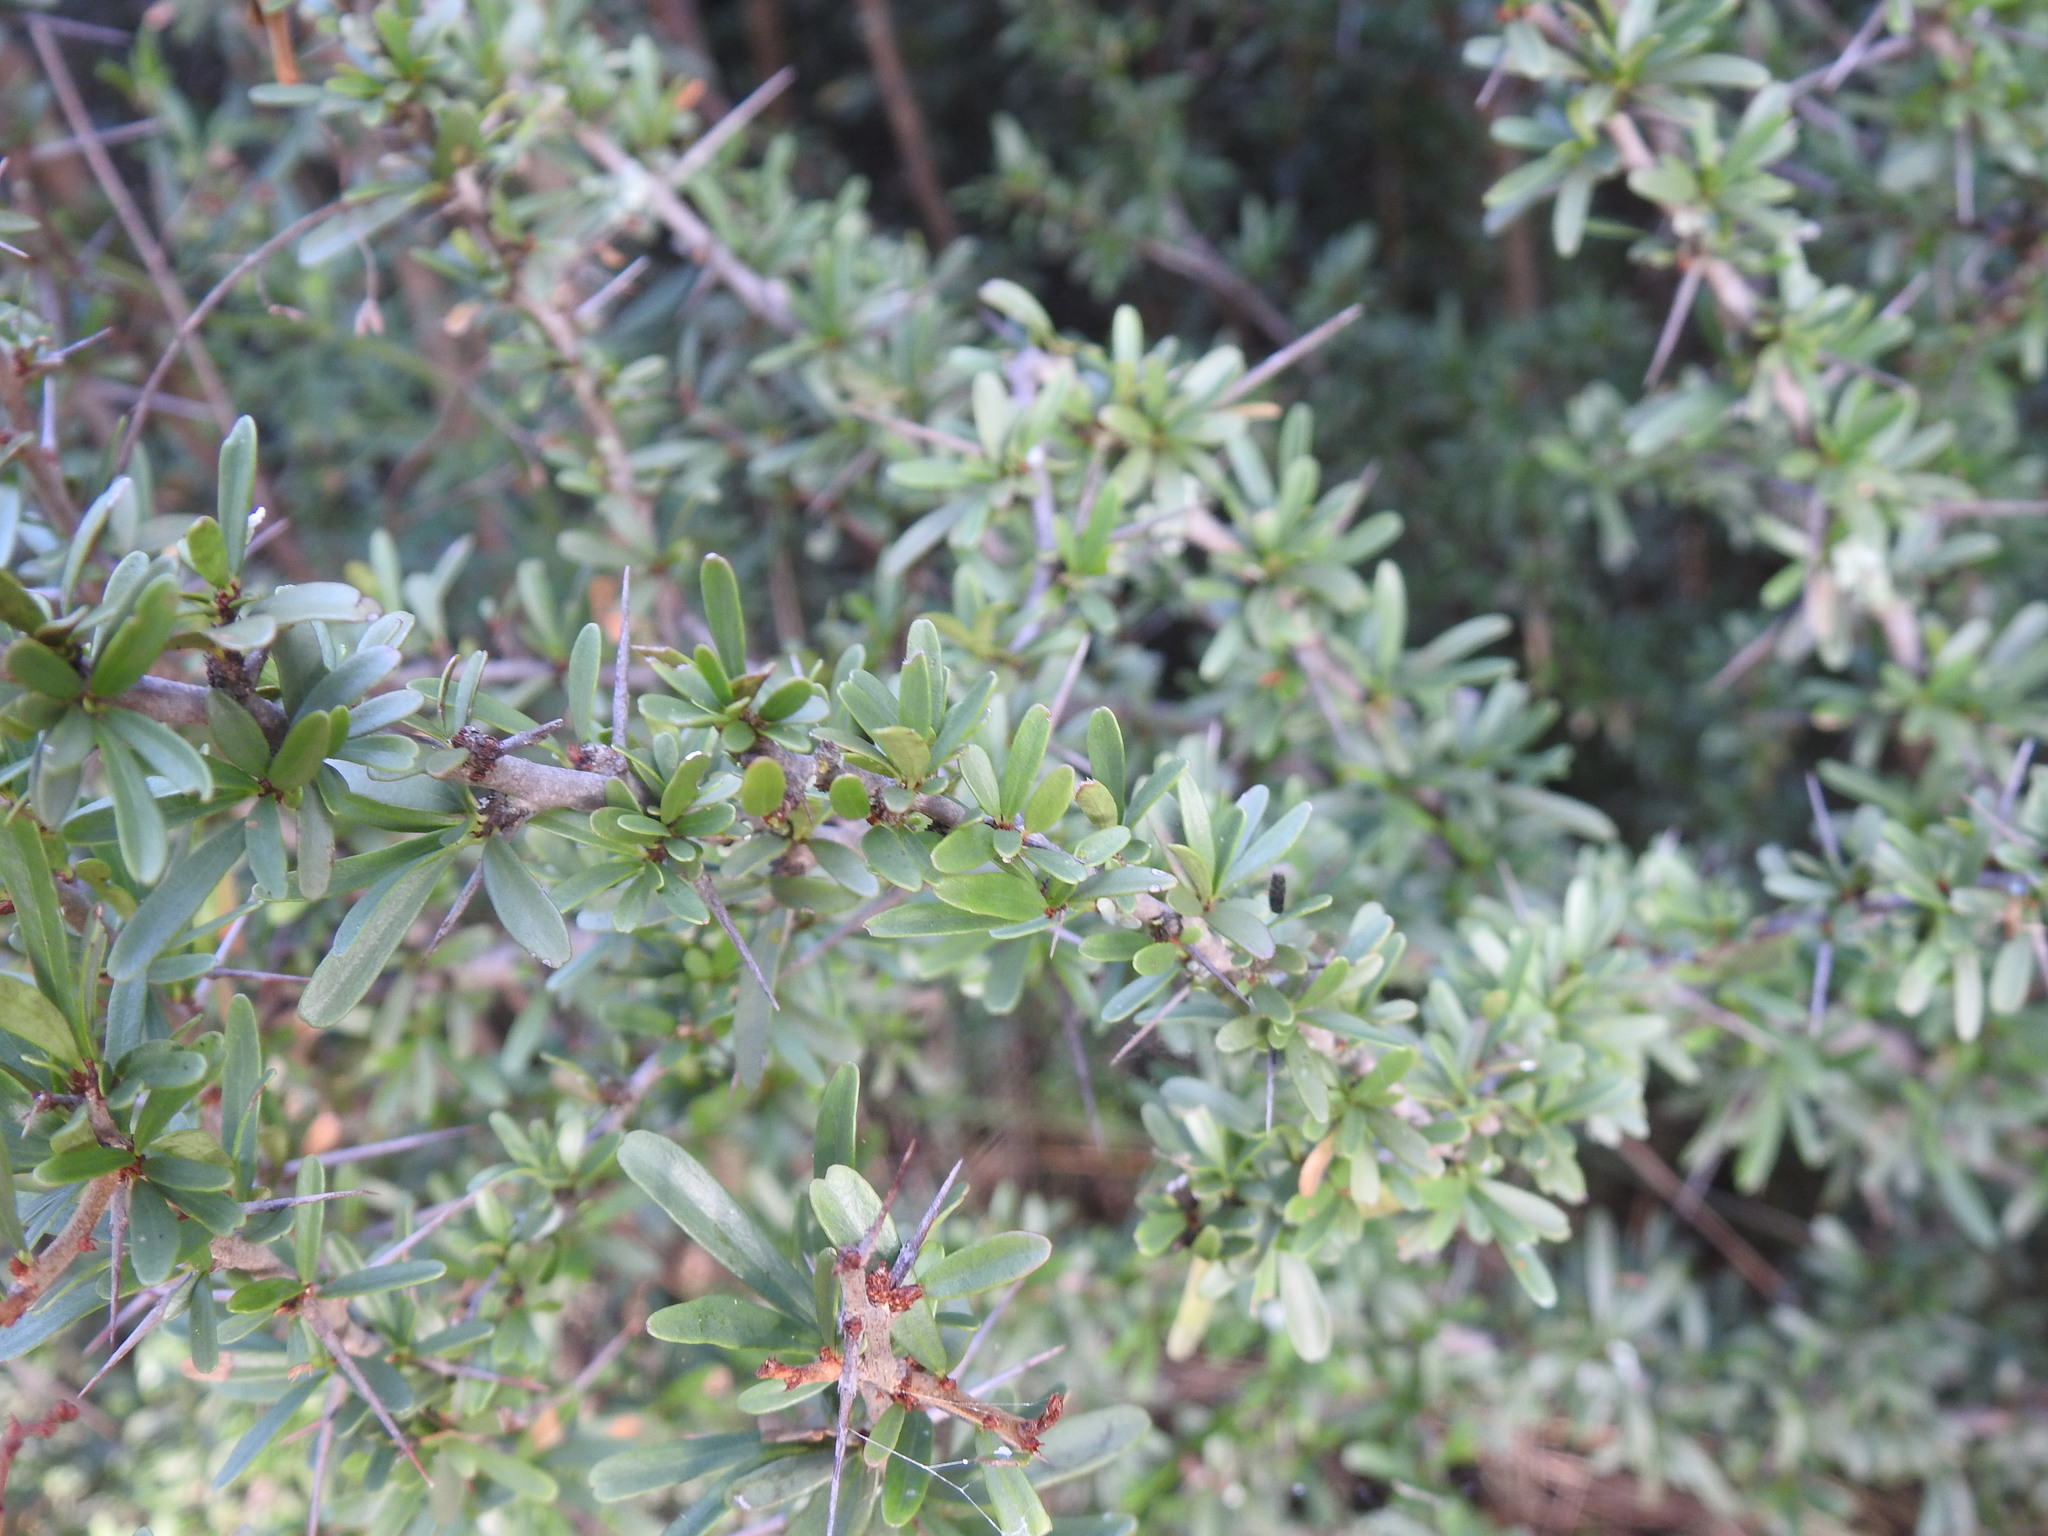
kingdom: Plantae
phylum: Tracheophyta
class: Magnoliopsida
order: Celastrales
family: Celastraceae
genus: Gymnosporia
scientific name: Gymnosporia polyacantha
